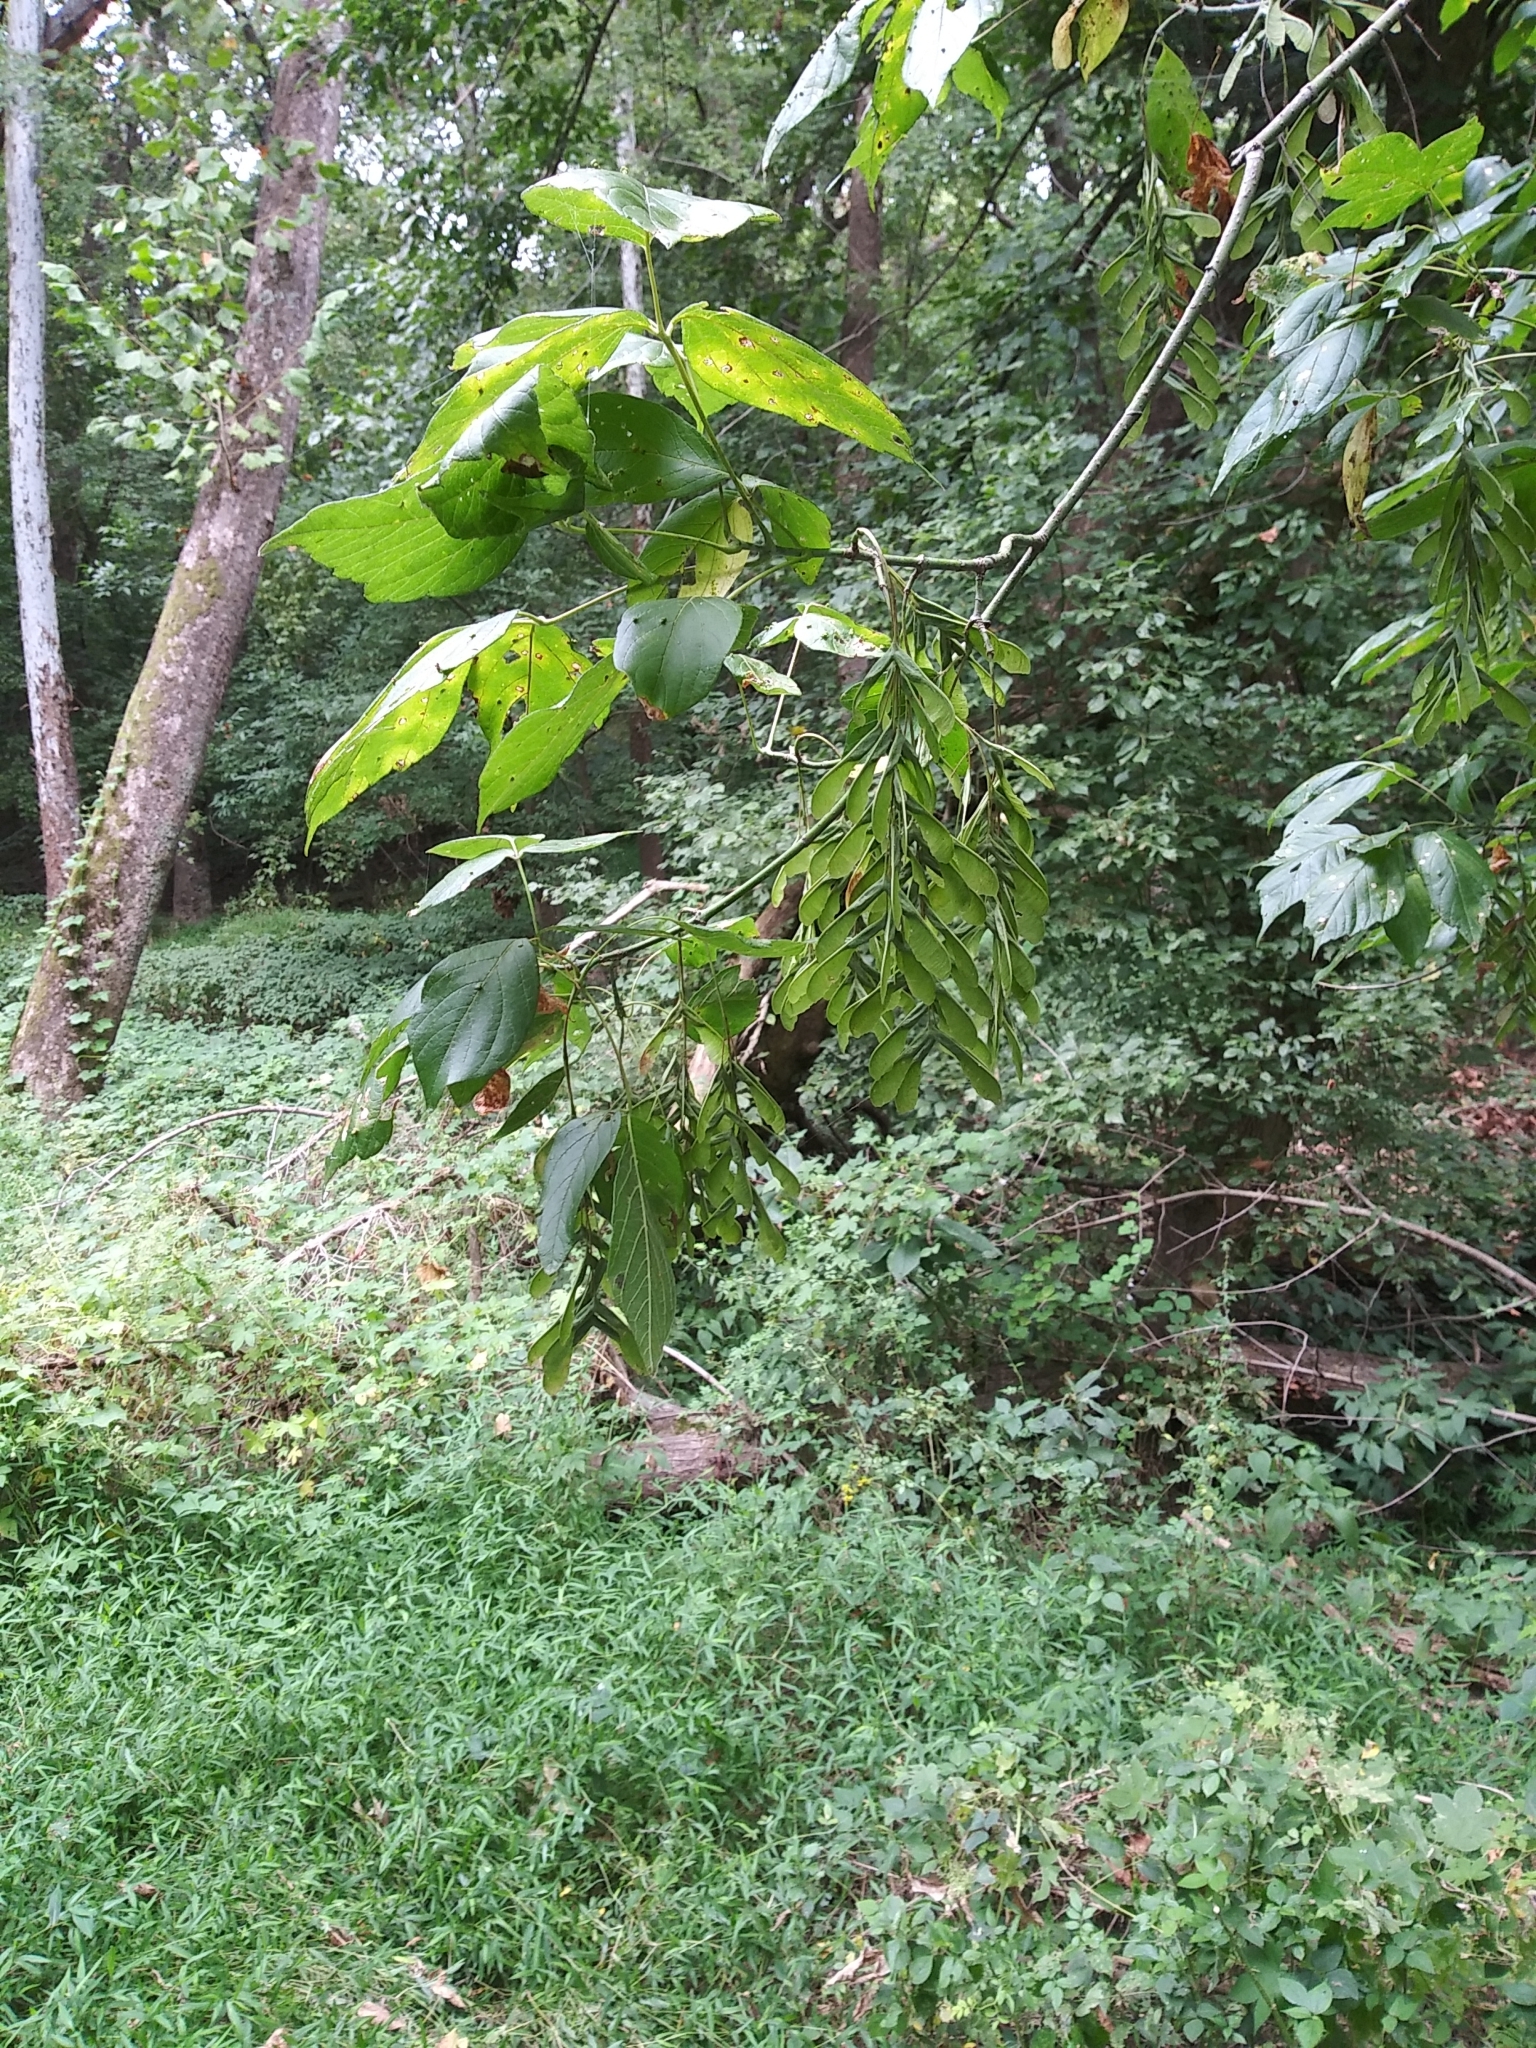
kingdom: Plantae
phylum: Tracheophyta
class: Magnoliopsida
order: Sapindales
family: Sapindaceae
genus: Acer
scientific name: Acer negundo
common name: Ashleaf maple
